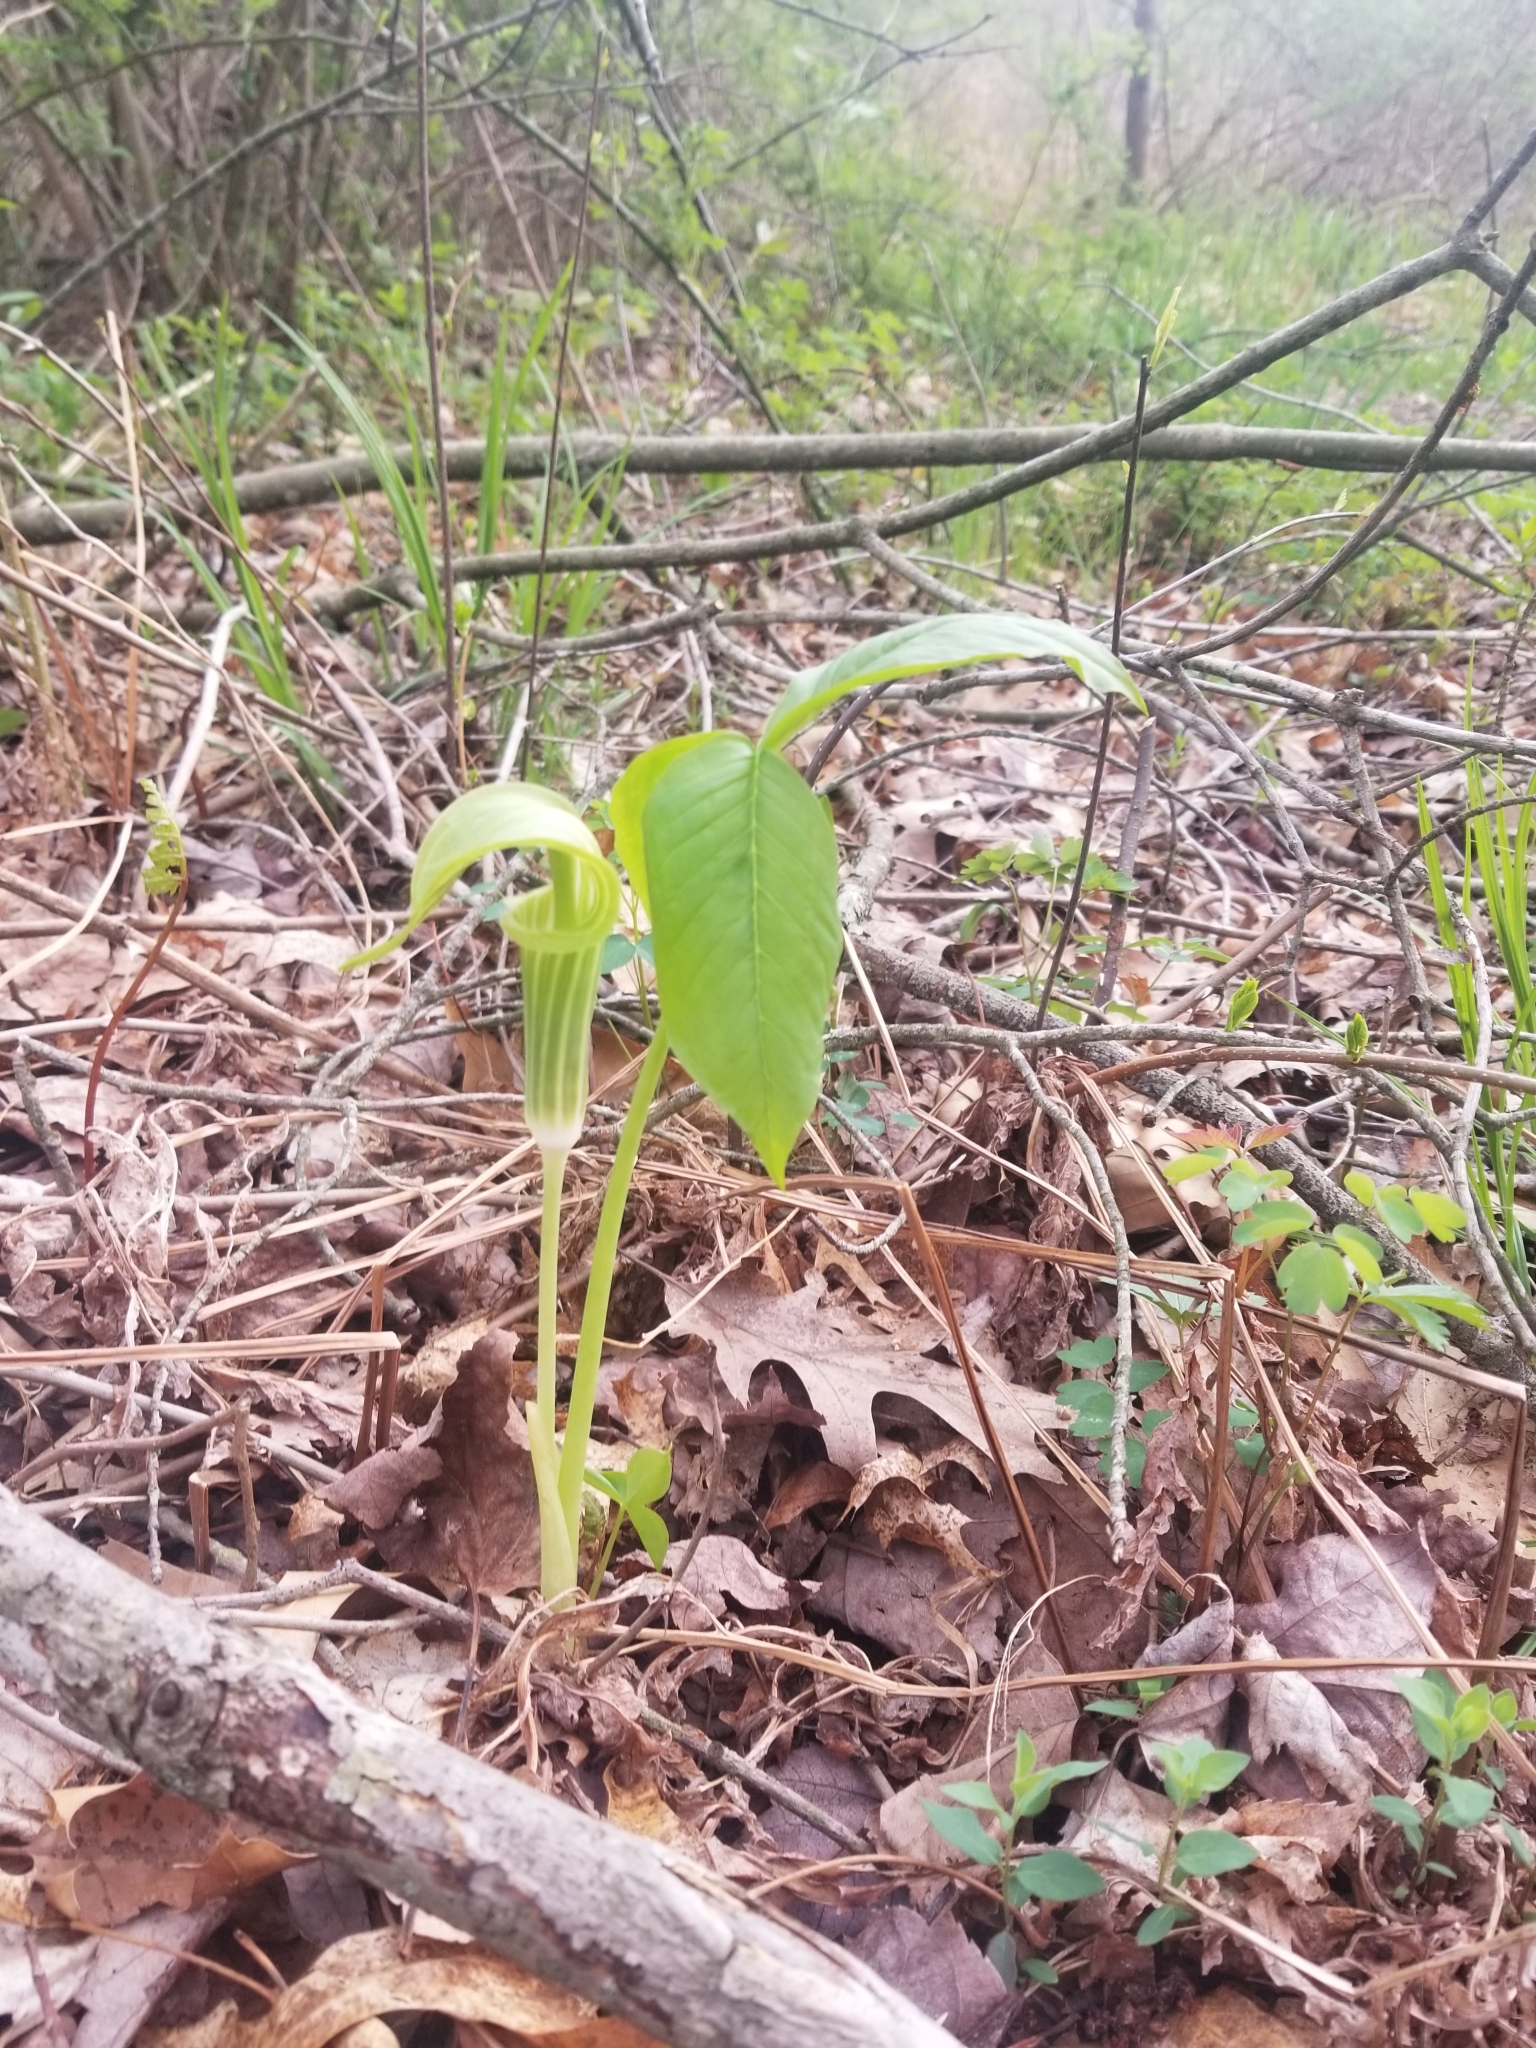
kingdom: Plantae
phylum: Tracheophyta
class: Liliopsida
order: Alismatales
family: Araceae
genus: Arisaema
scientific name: Arisaema triphyllum
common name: Jack-in-the-pulpit
